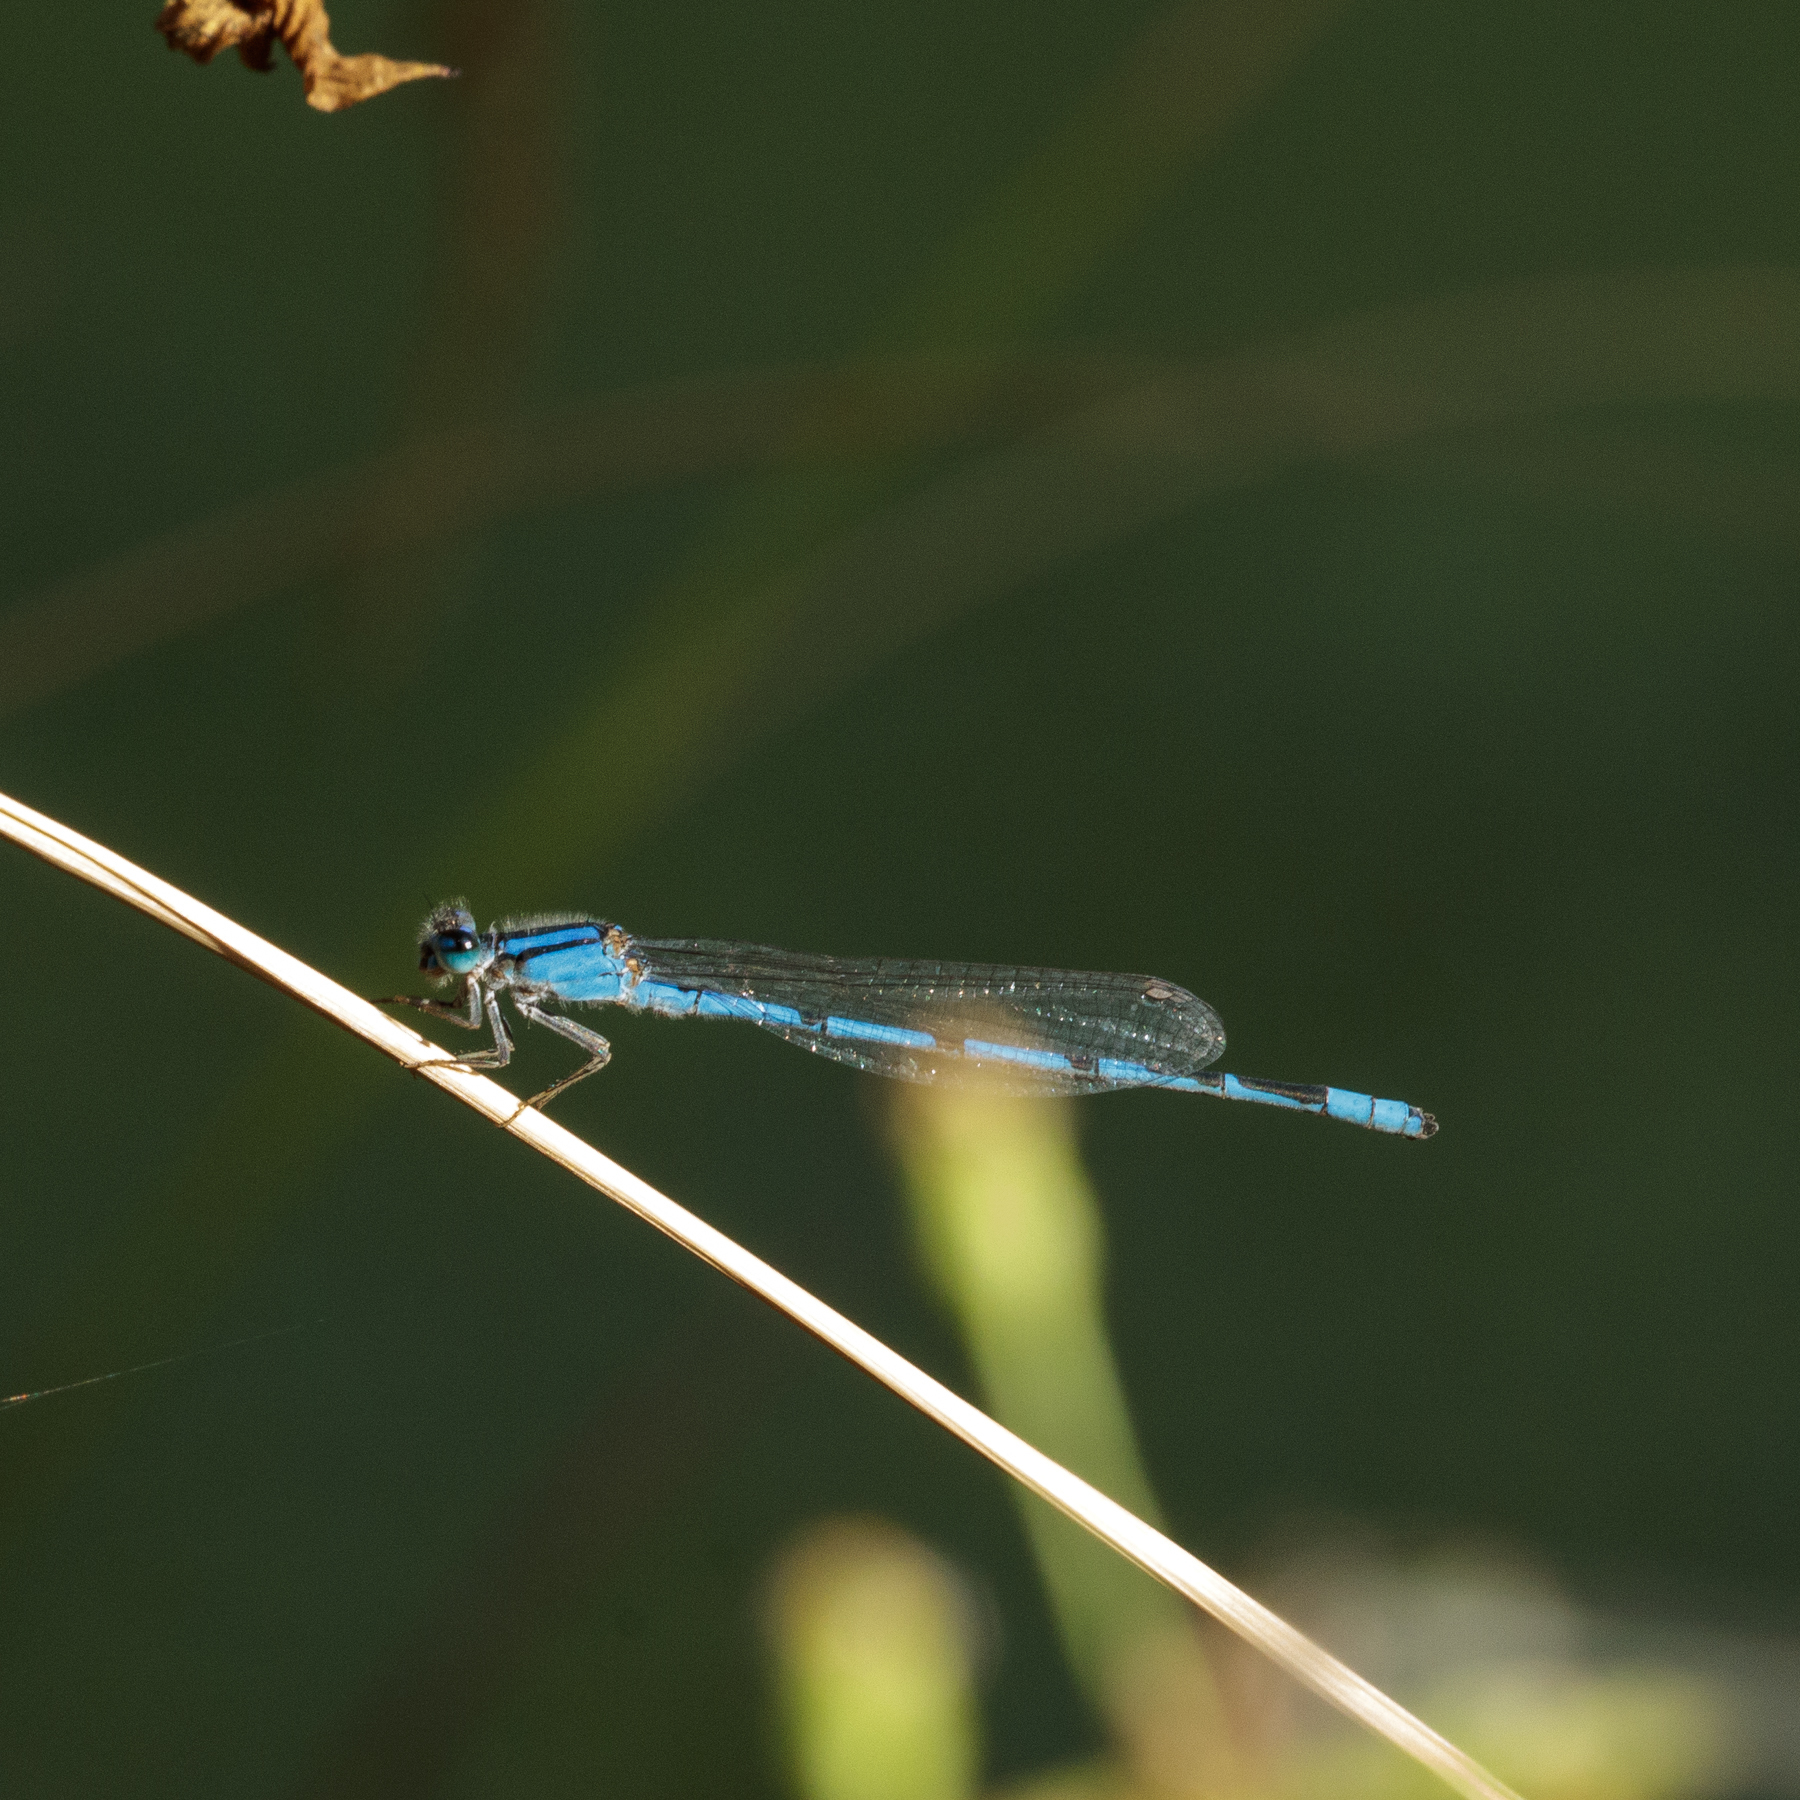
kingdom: Animalia
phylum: Arthropoda
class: Insecta
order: Odonata
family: Coenagrionidae
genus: Enallagma
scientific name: Enallagma civile
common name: Damselfly
